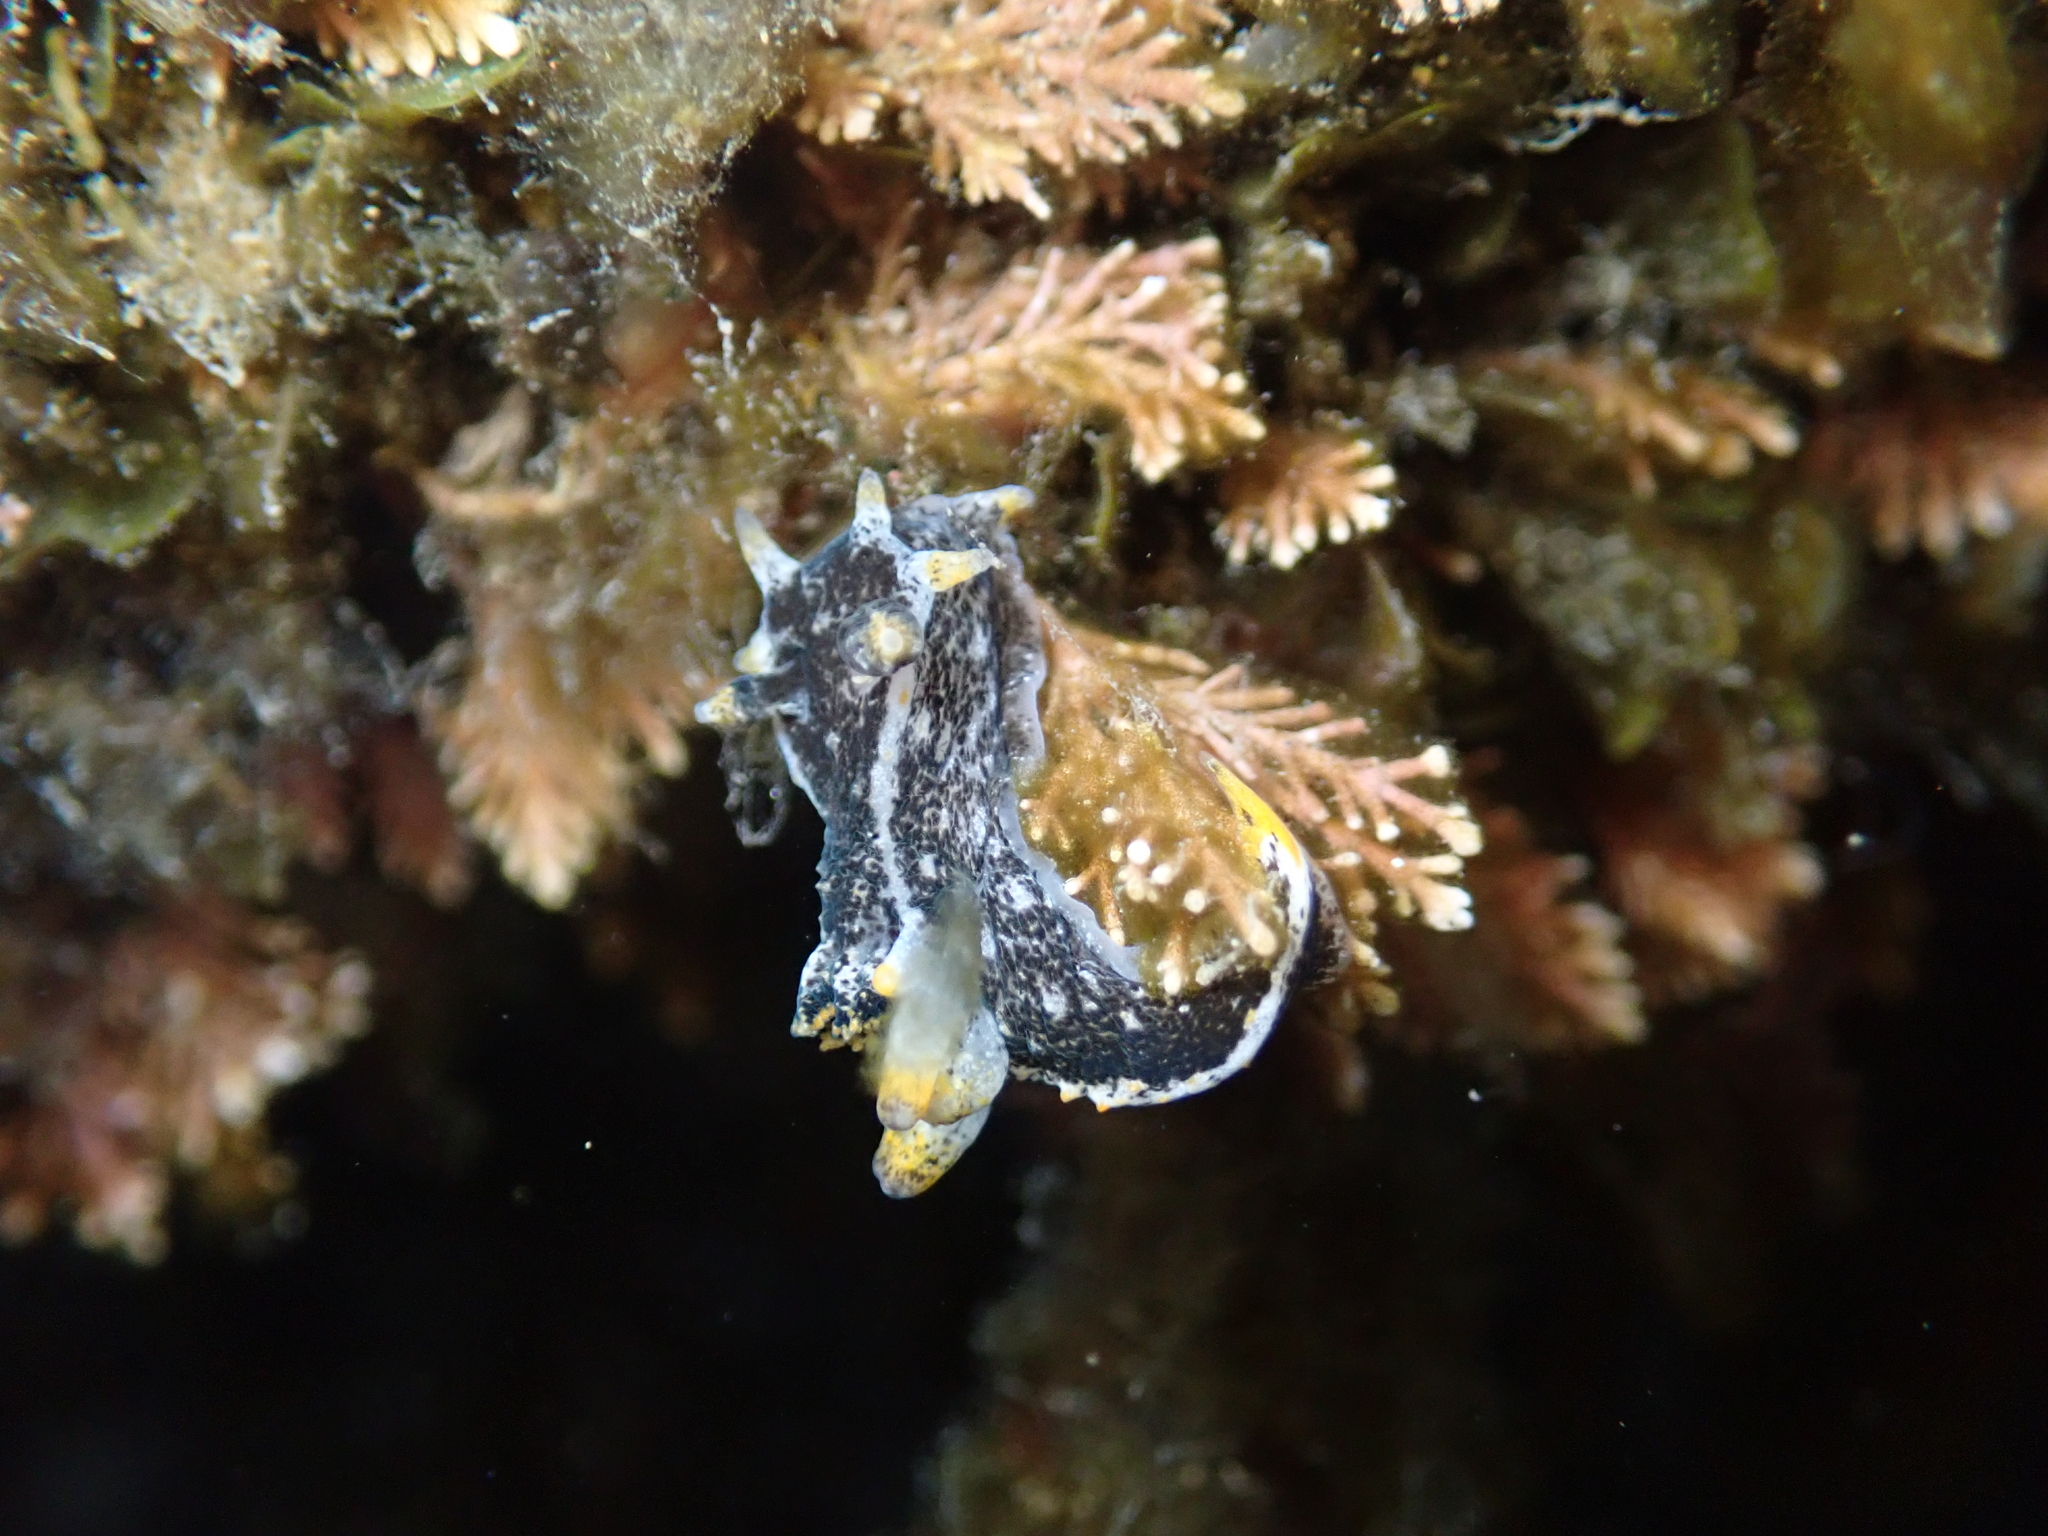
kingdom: Animalia
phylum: Mollusca
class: Gastropoda
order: Nudibranchia
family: Polyceridae
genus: Polycera
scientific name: Polycera hedgpethi
